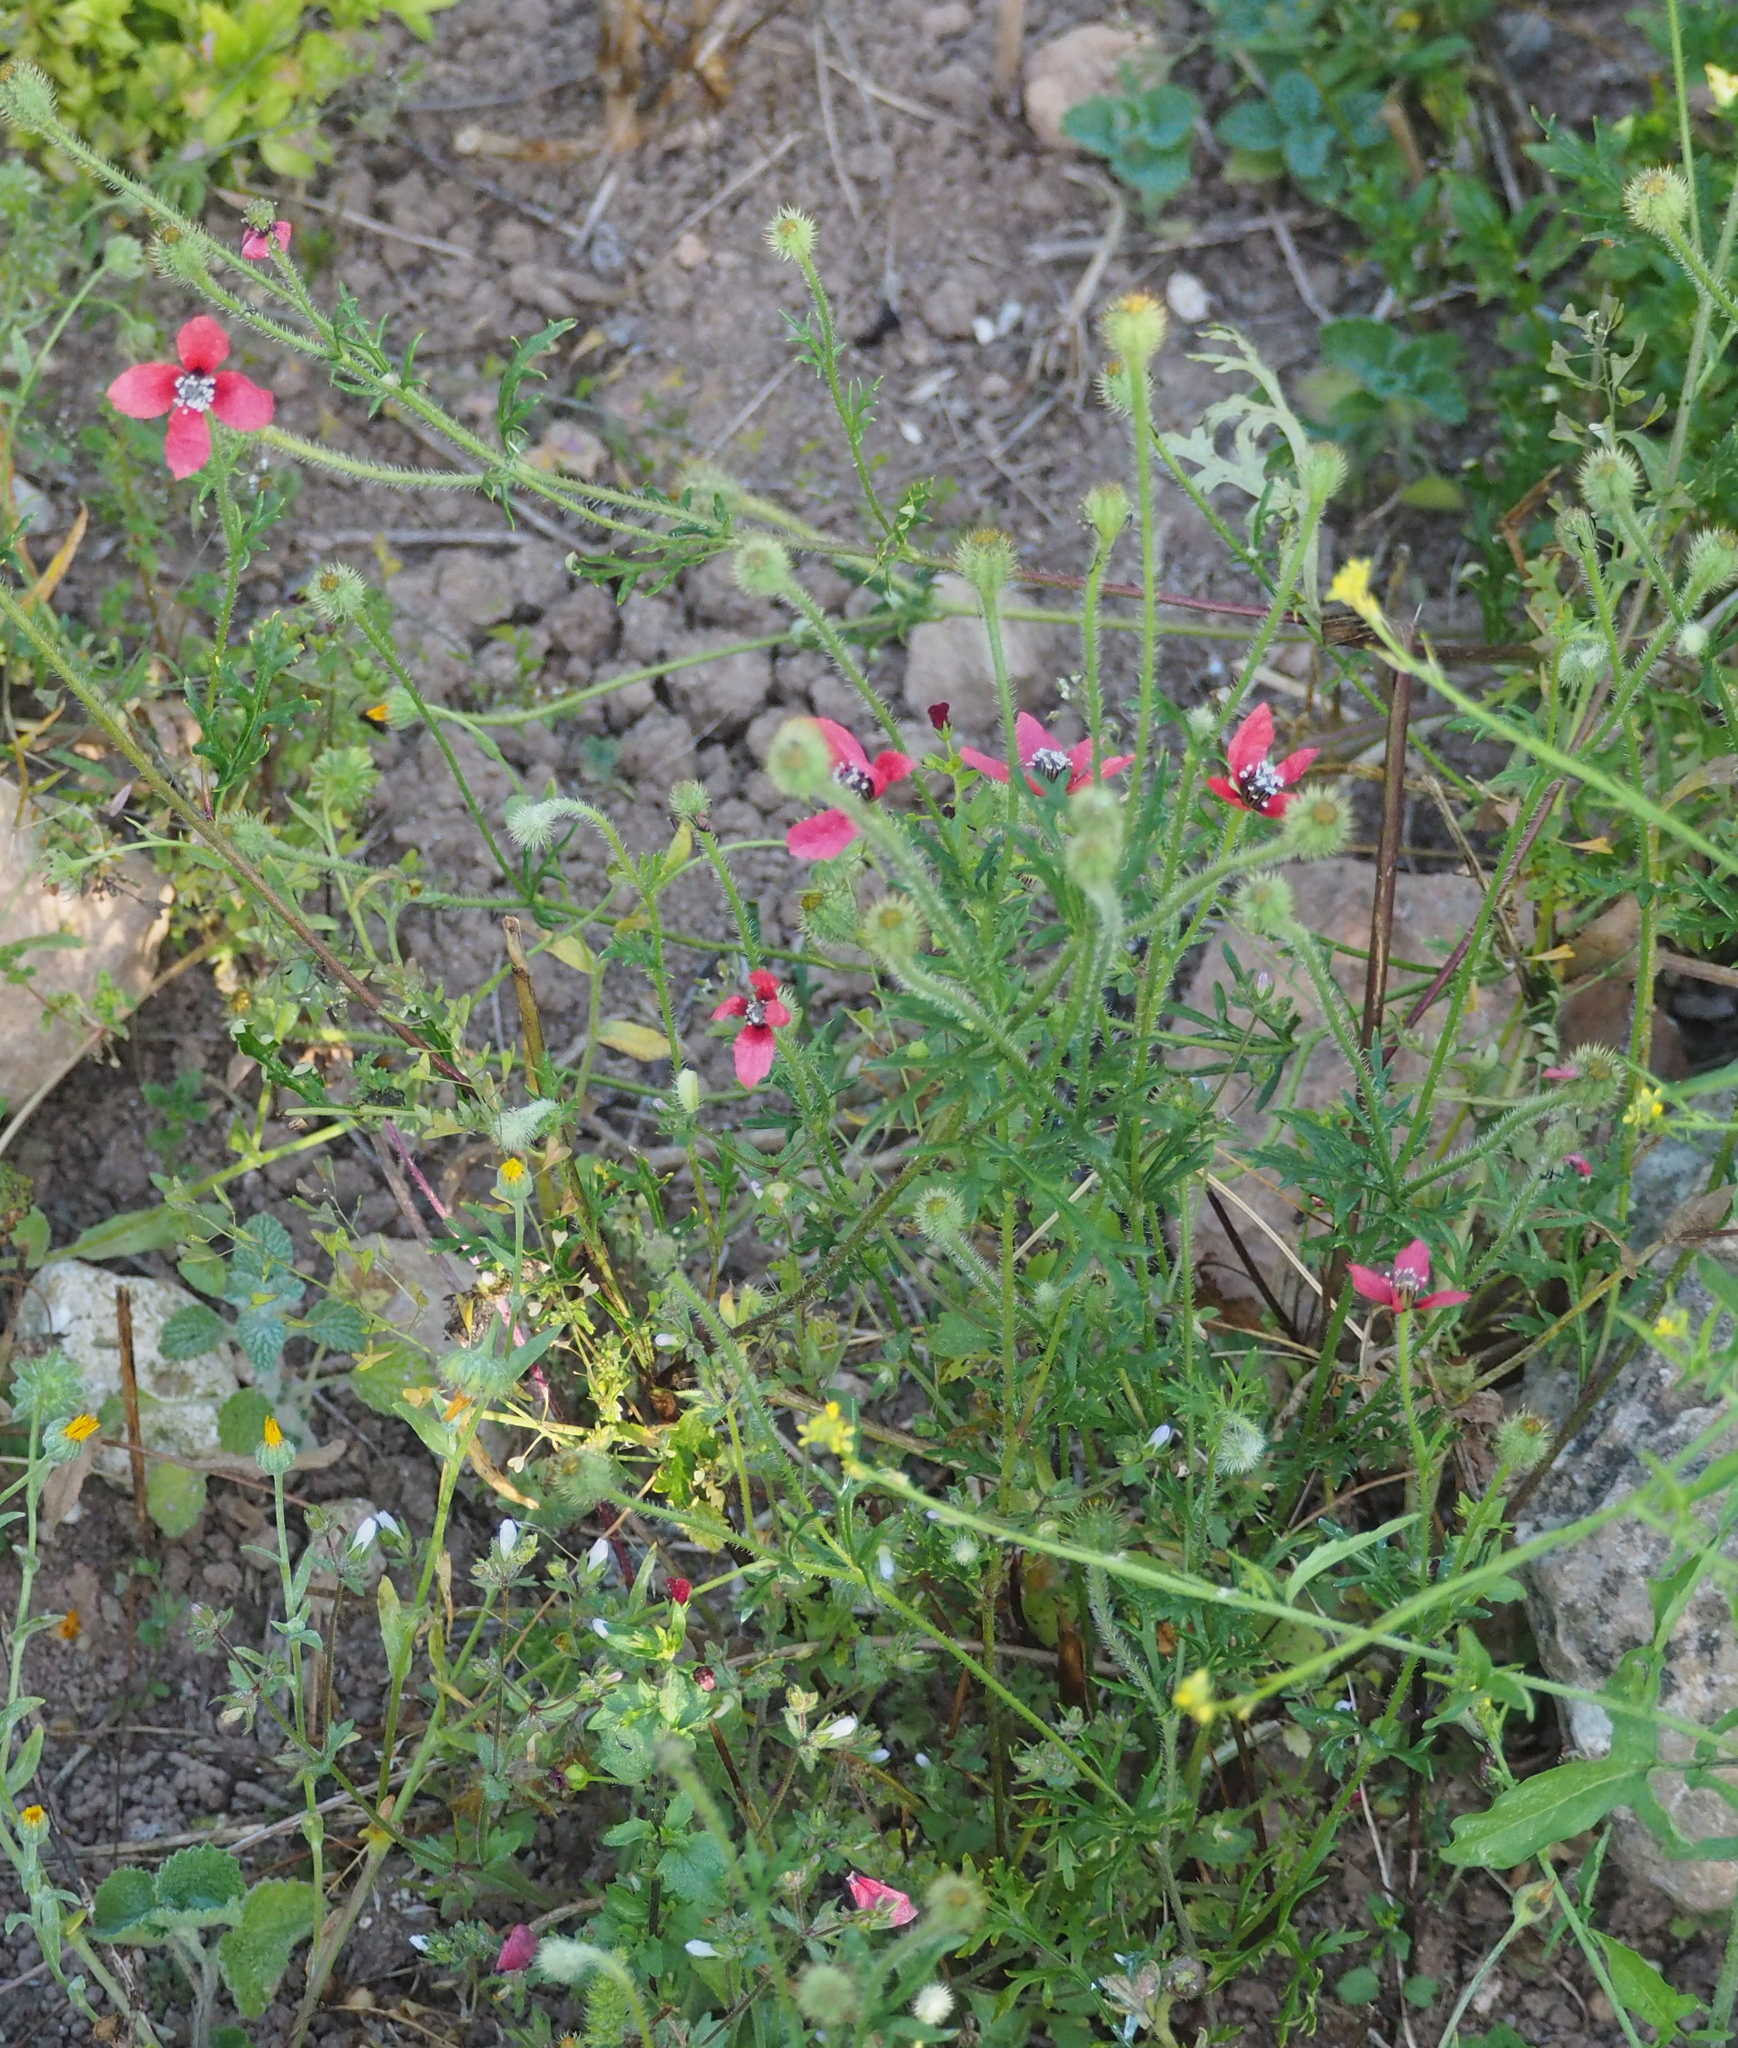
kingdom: Plantae
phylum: Tracheophyta
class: Magnoliopsida
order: Ranunculales
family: Papaveraceae
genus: Roemeria
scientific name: Roemeria hispida
